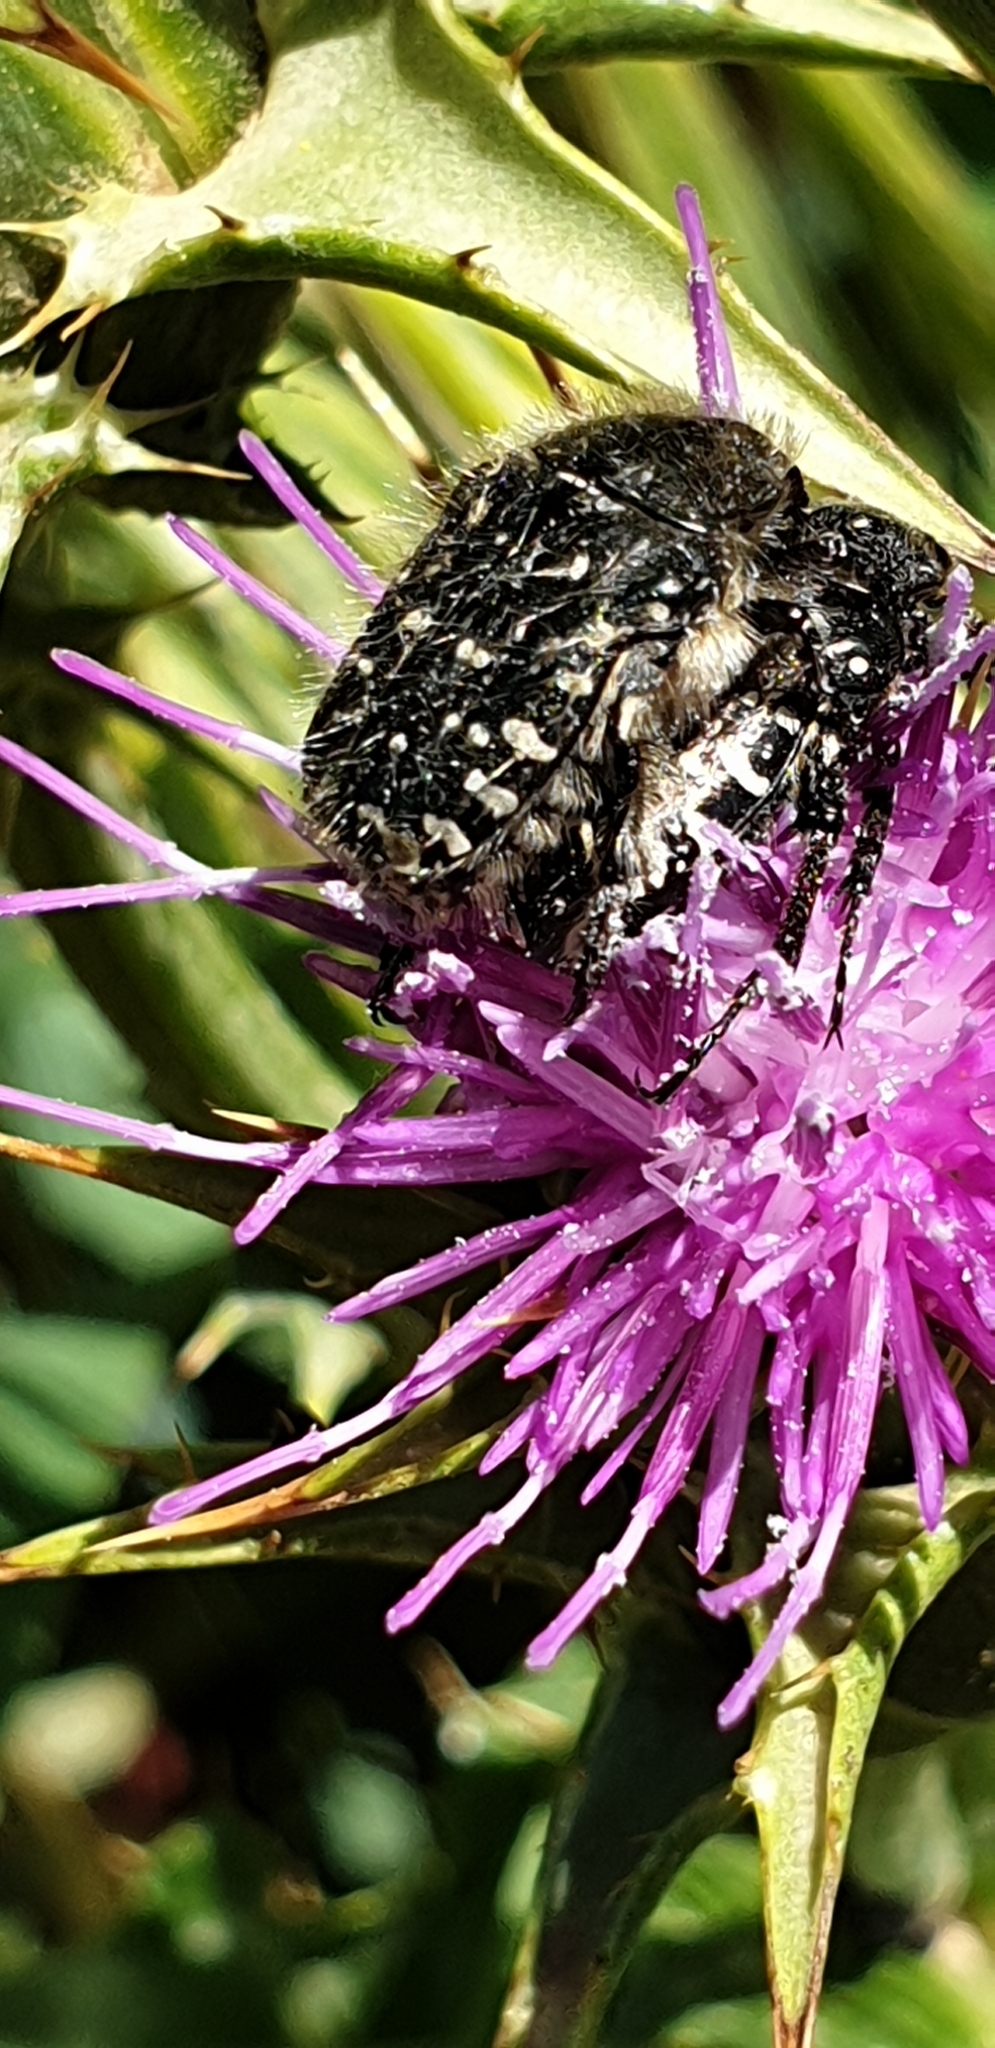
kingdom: Animalia
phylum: Arthropoda
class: Insecta
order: Coleoptera
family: Scarabaeidae
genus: Oxythyrea
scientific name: Oxythyrea funesta
